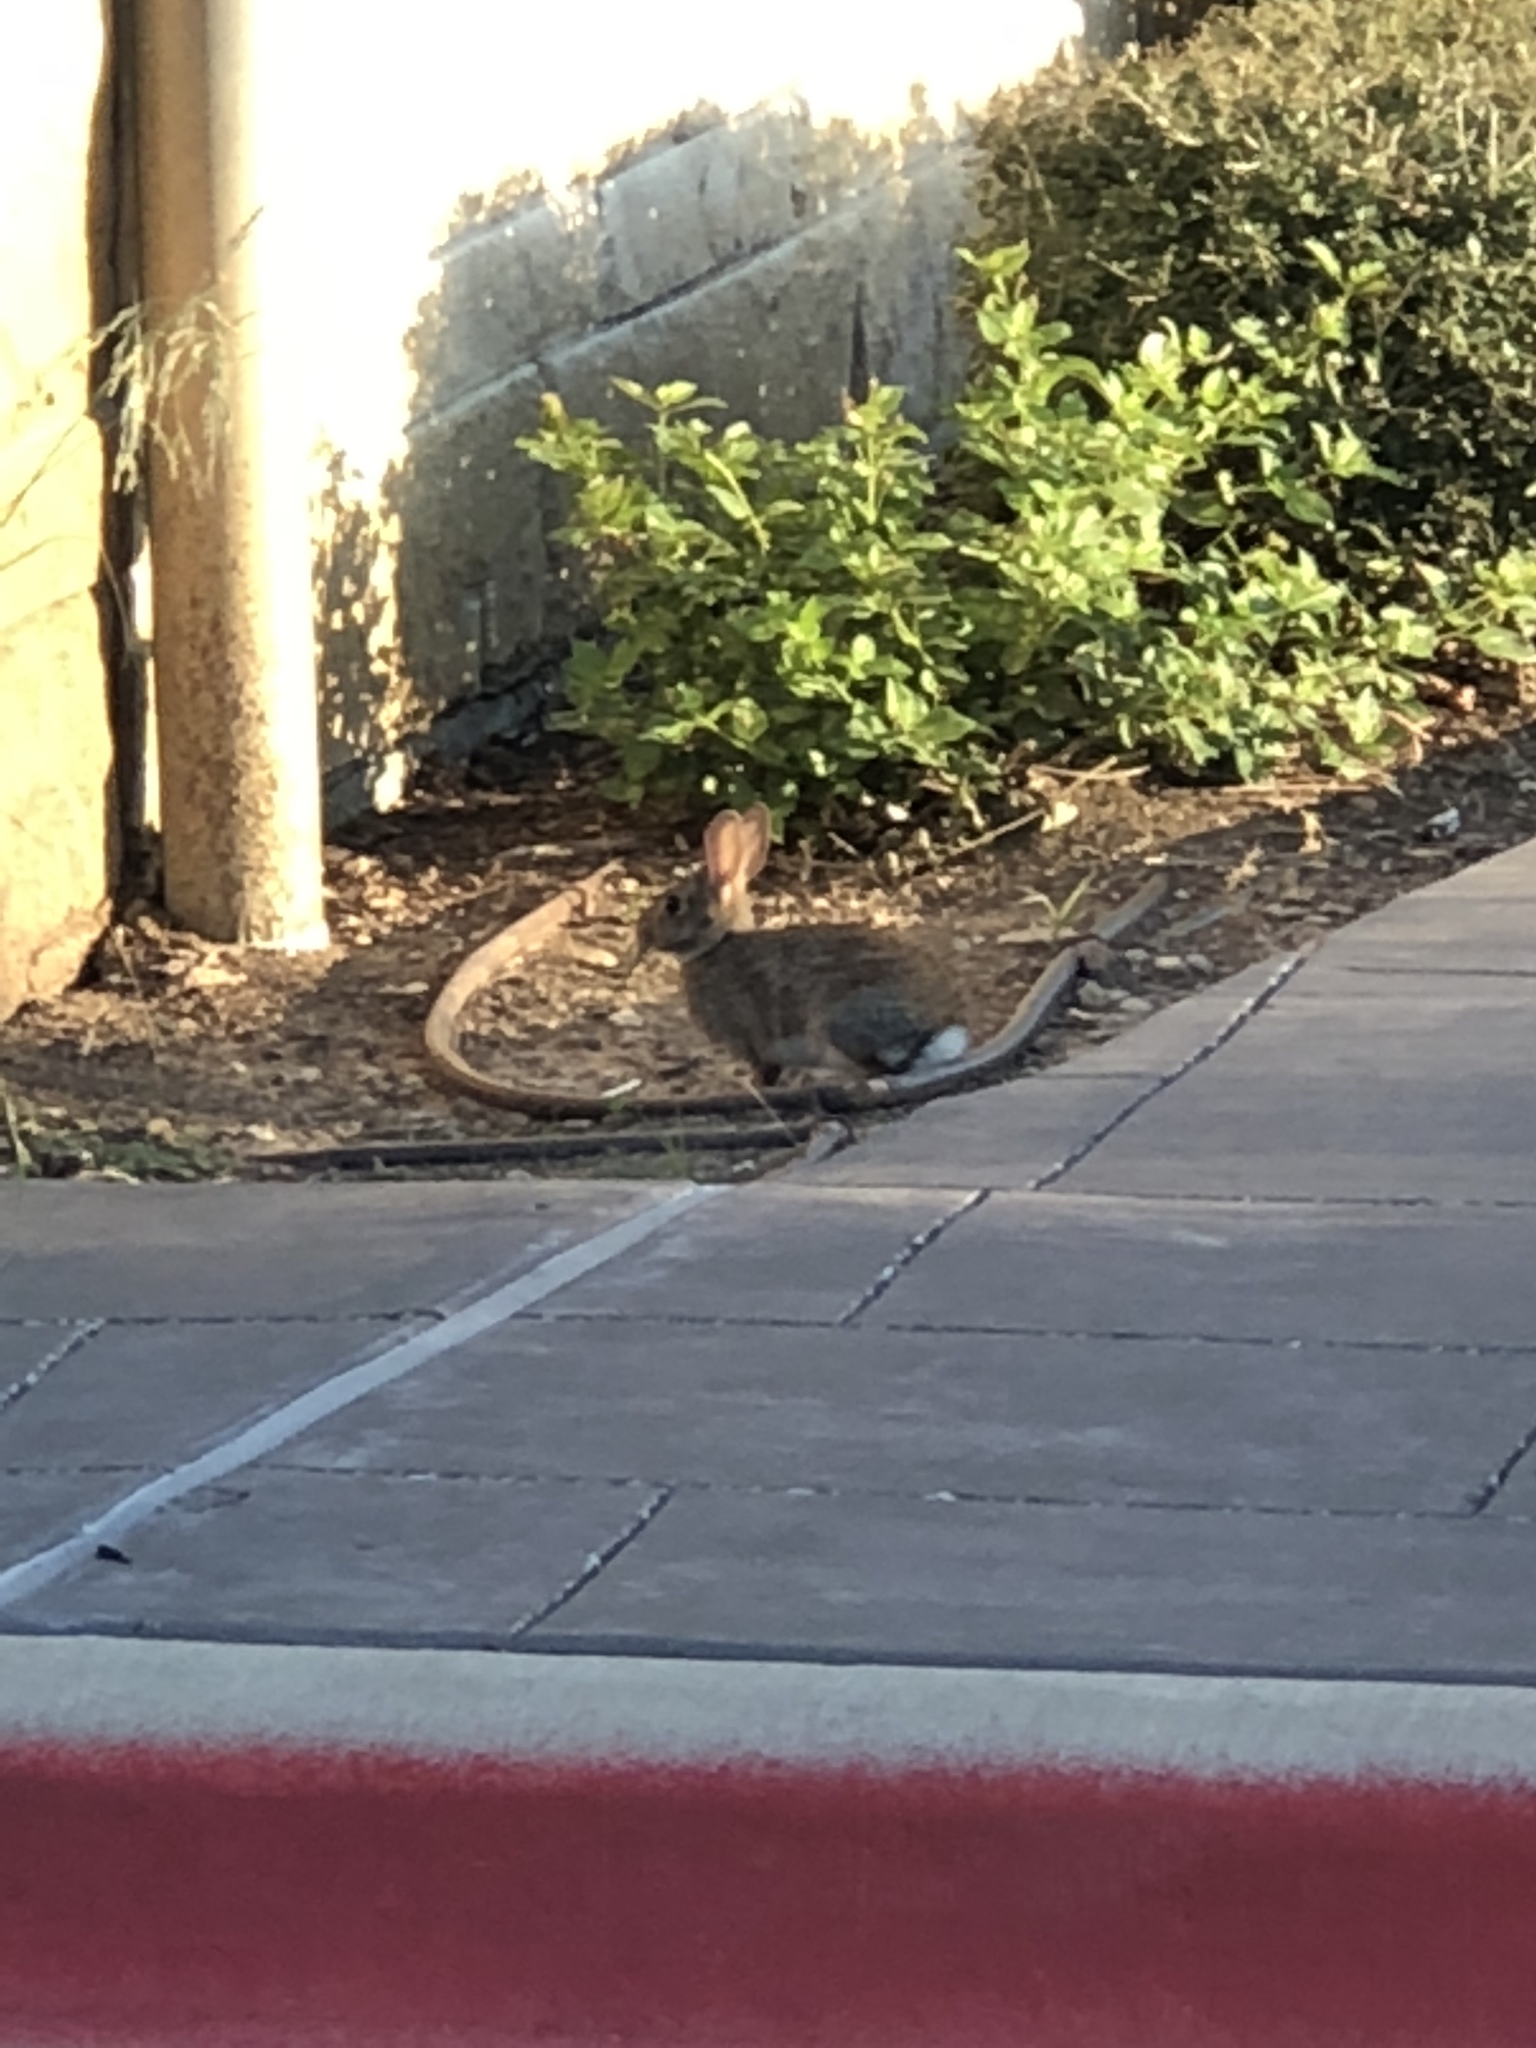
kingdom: Animalia
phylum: Chordata
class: Mammalia
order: Lagomorpha
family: Leporidae
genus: Sylvilagus
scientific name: Sylvilagus floridanus
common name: Eastern cottontail
